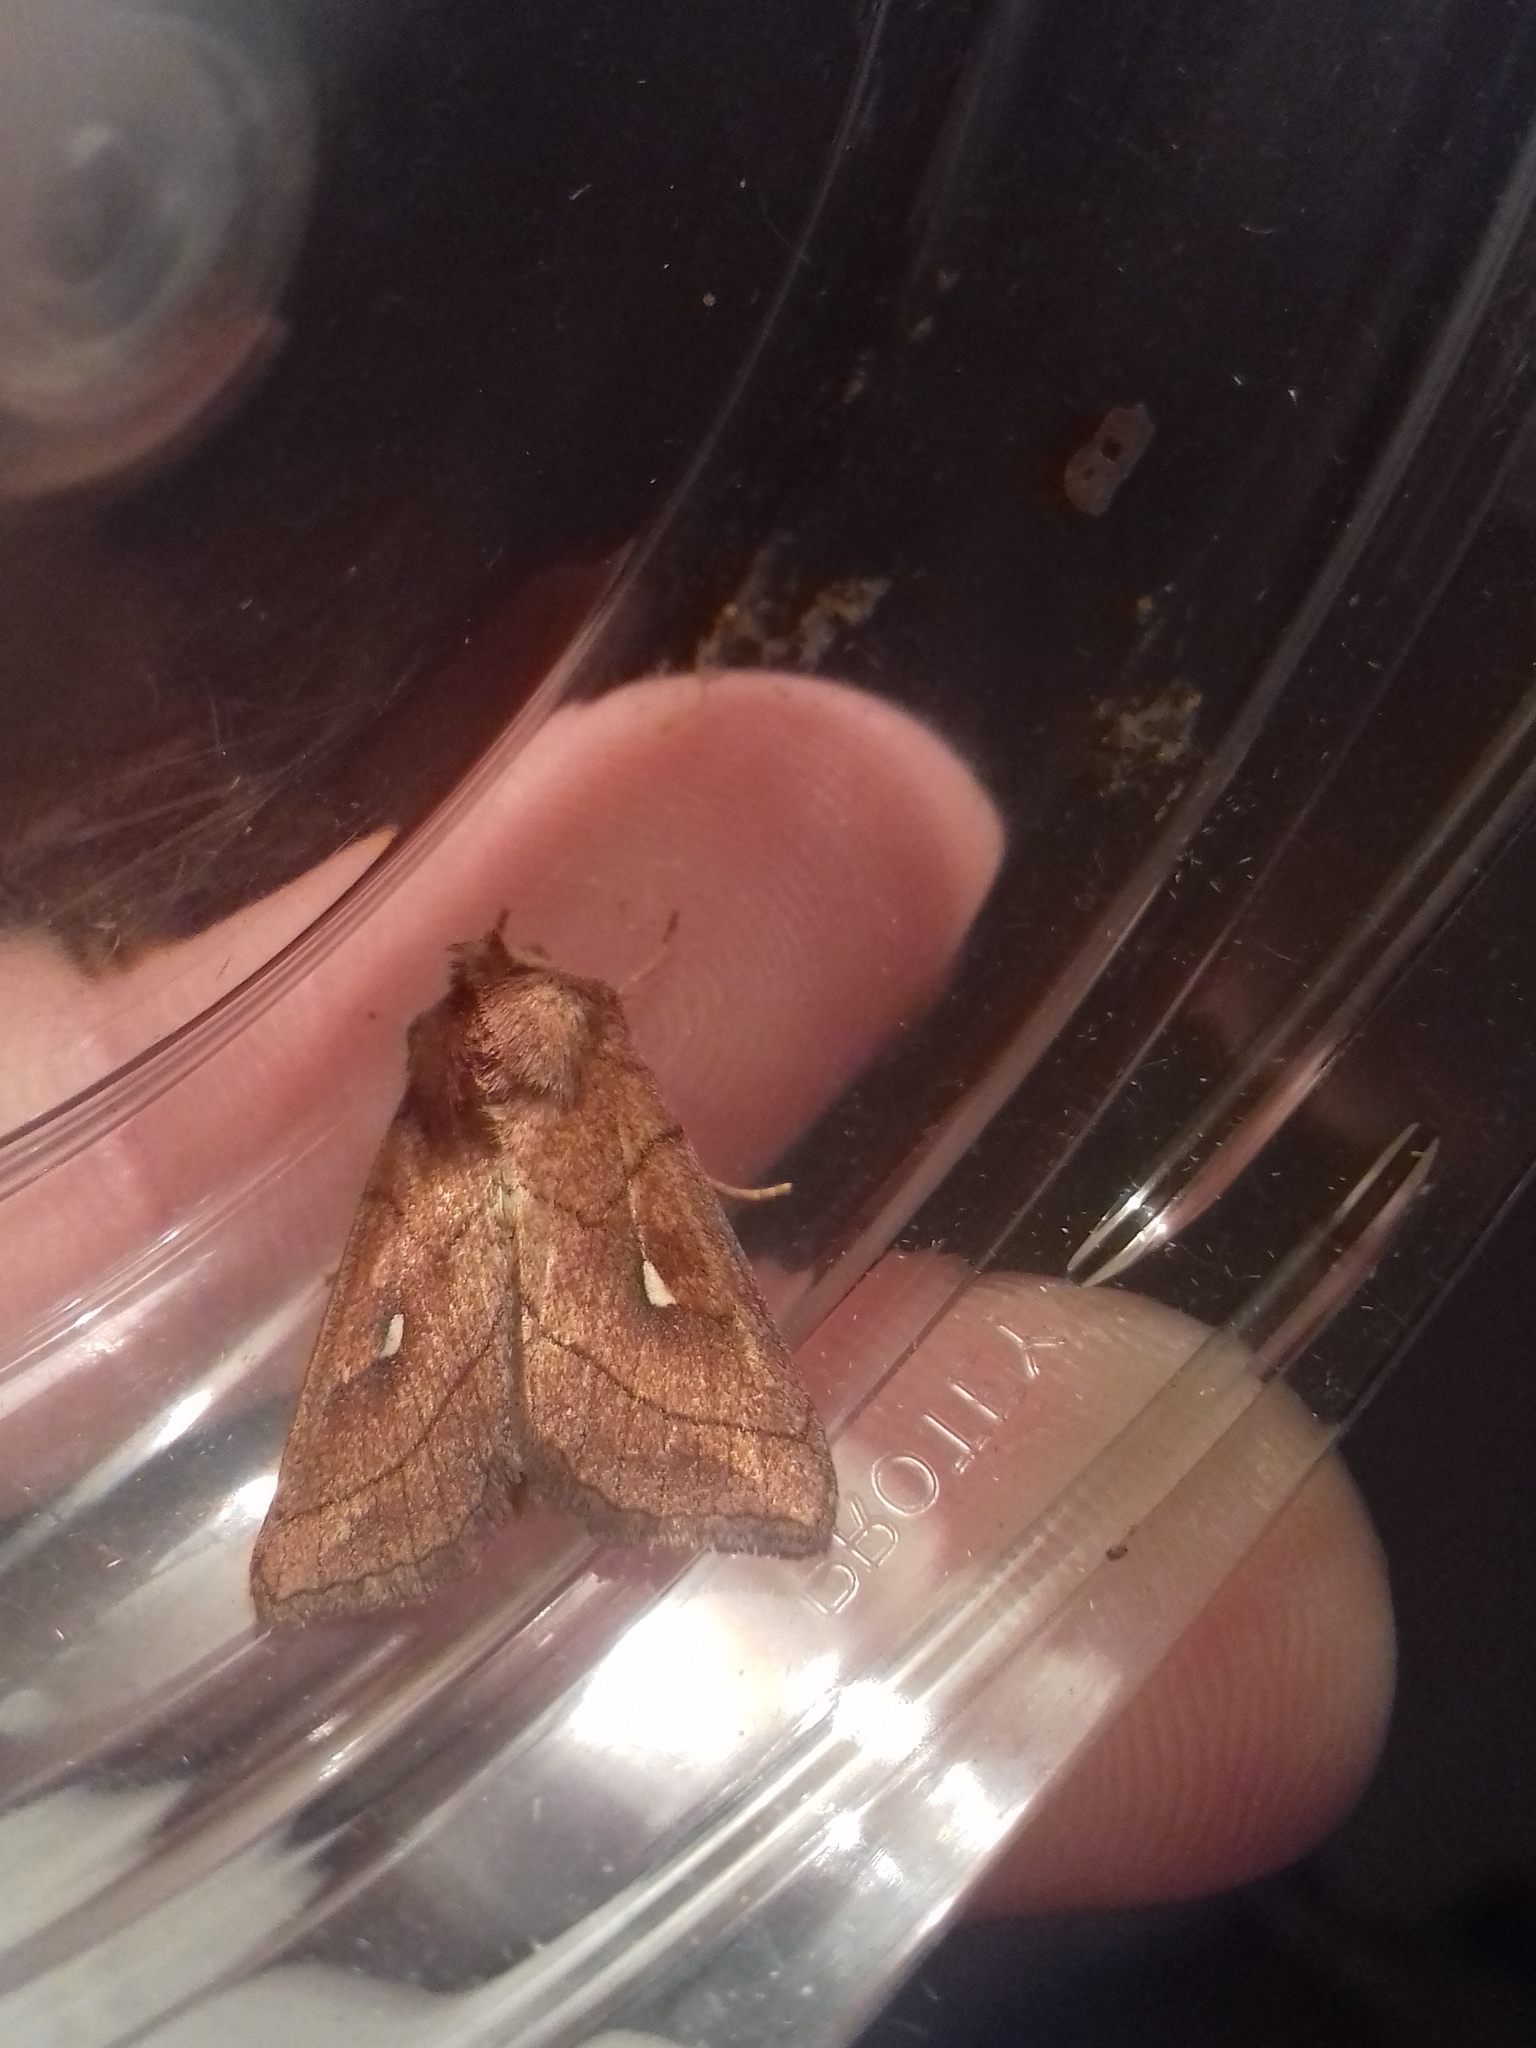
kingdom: Animalia
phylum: Arthropoda
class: Insecta
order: Lepidoptera
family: Noctuidae
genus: Mythimna
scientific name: Mythimna conigera
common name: Brown-line bright-eye
